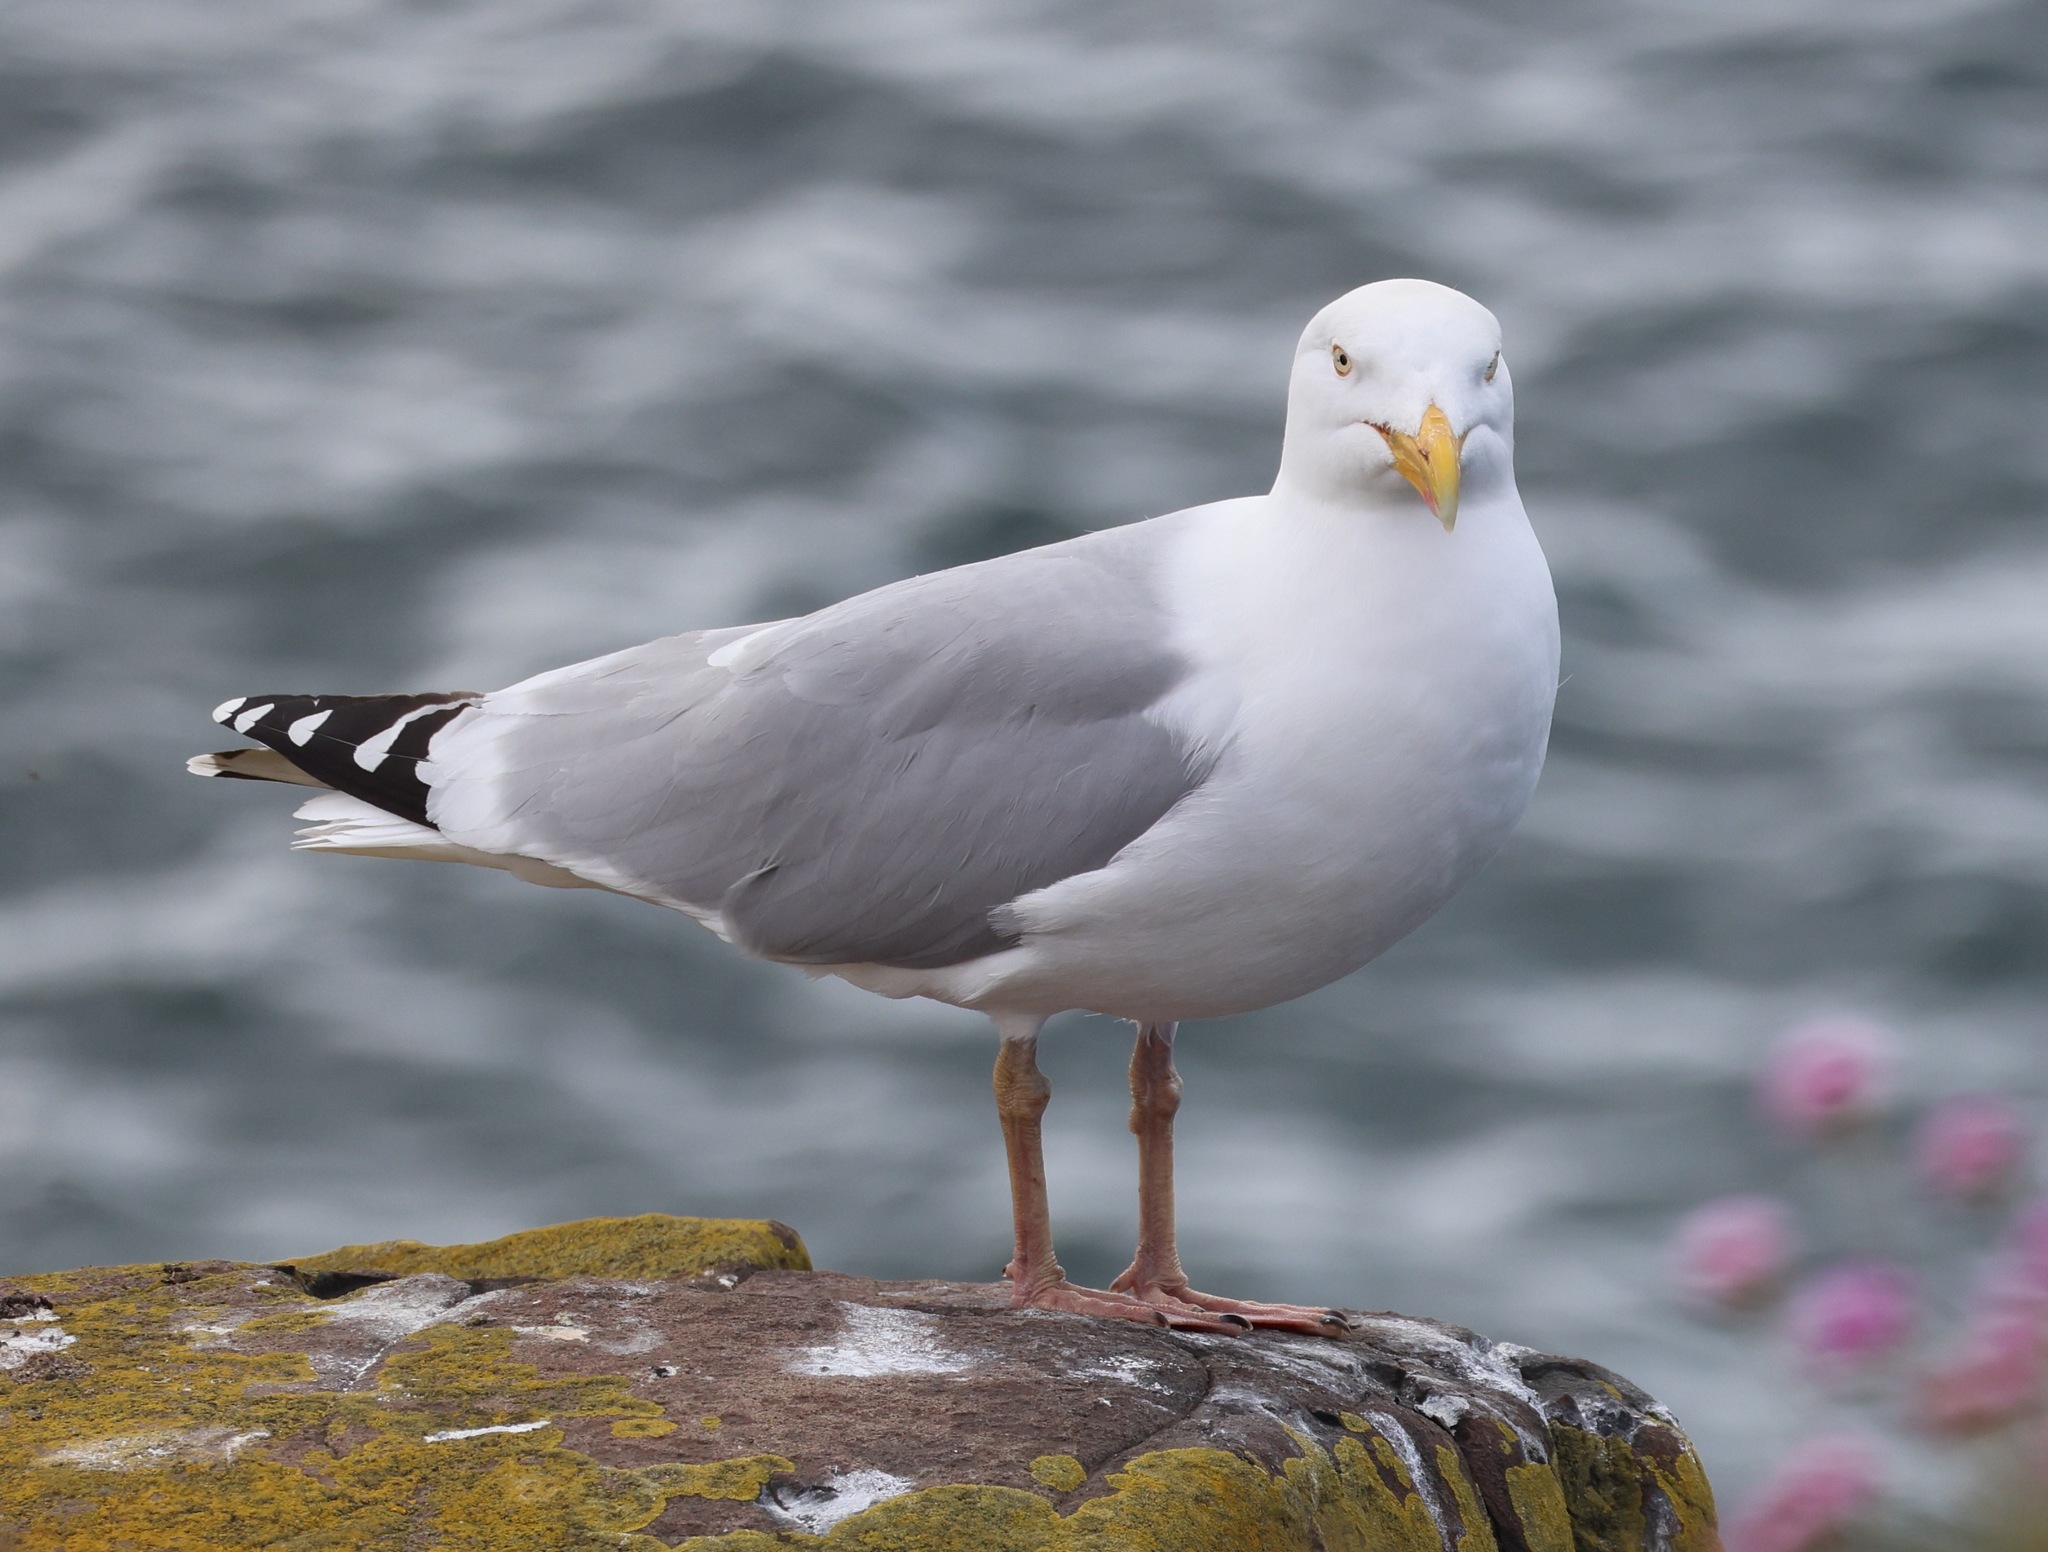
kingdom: Animalia
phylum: Chordata
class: Aves
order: Charadriiformes
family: Laridae
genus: Larus
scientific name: Larus argentatus
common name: Herring gull
